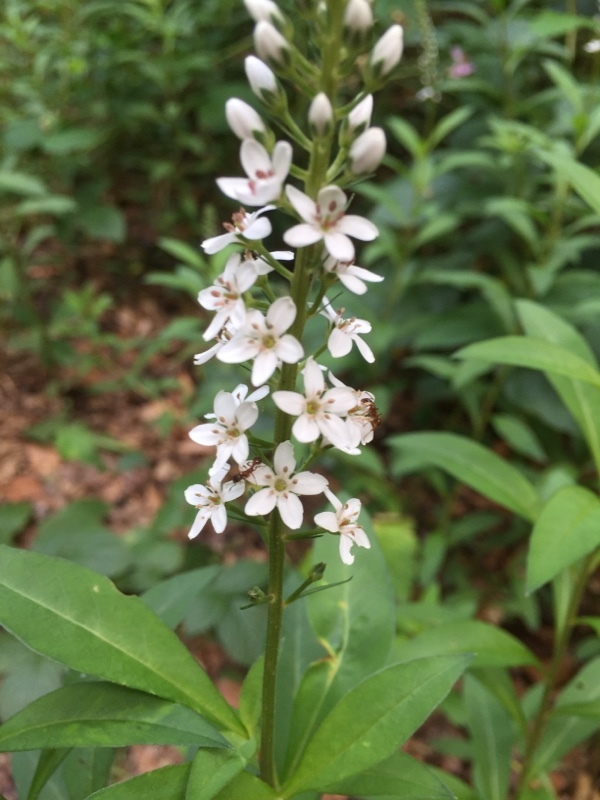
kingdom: Plantae
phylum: Tracheophyta
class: Magnoliopsida
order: Ericales
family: Primulaceae
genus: Lysimachia
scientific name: Lysimachia clethroides
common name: Gooseneck loosestrife
